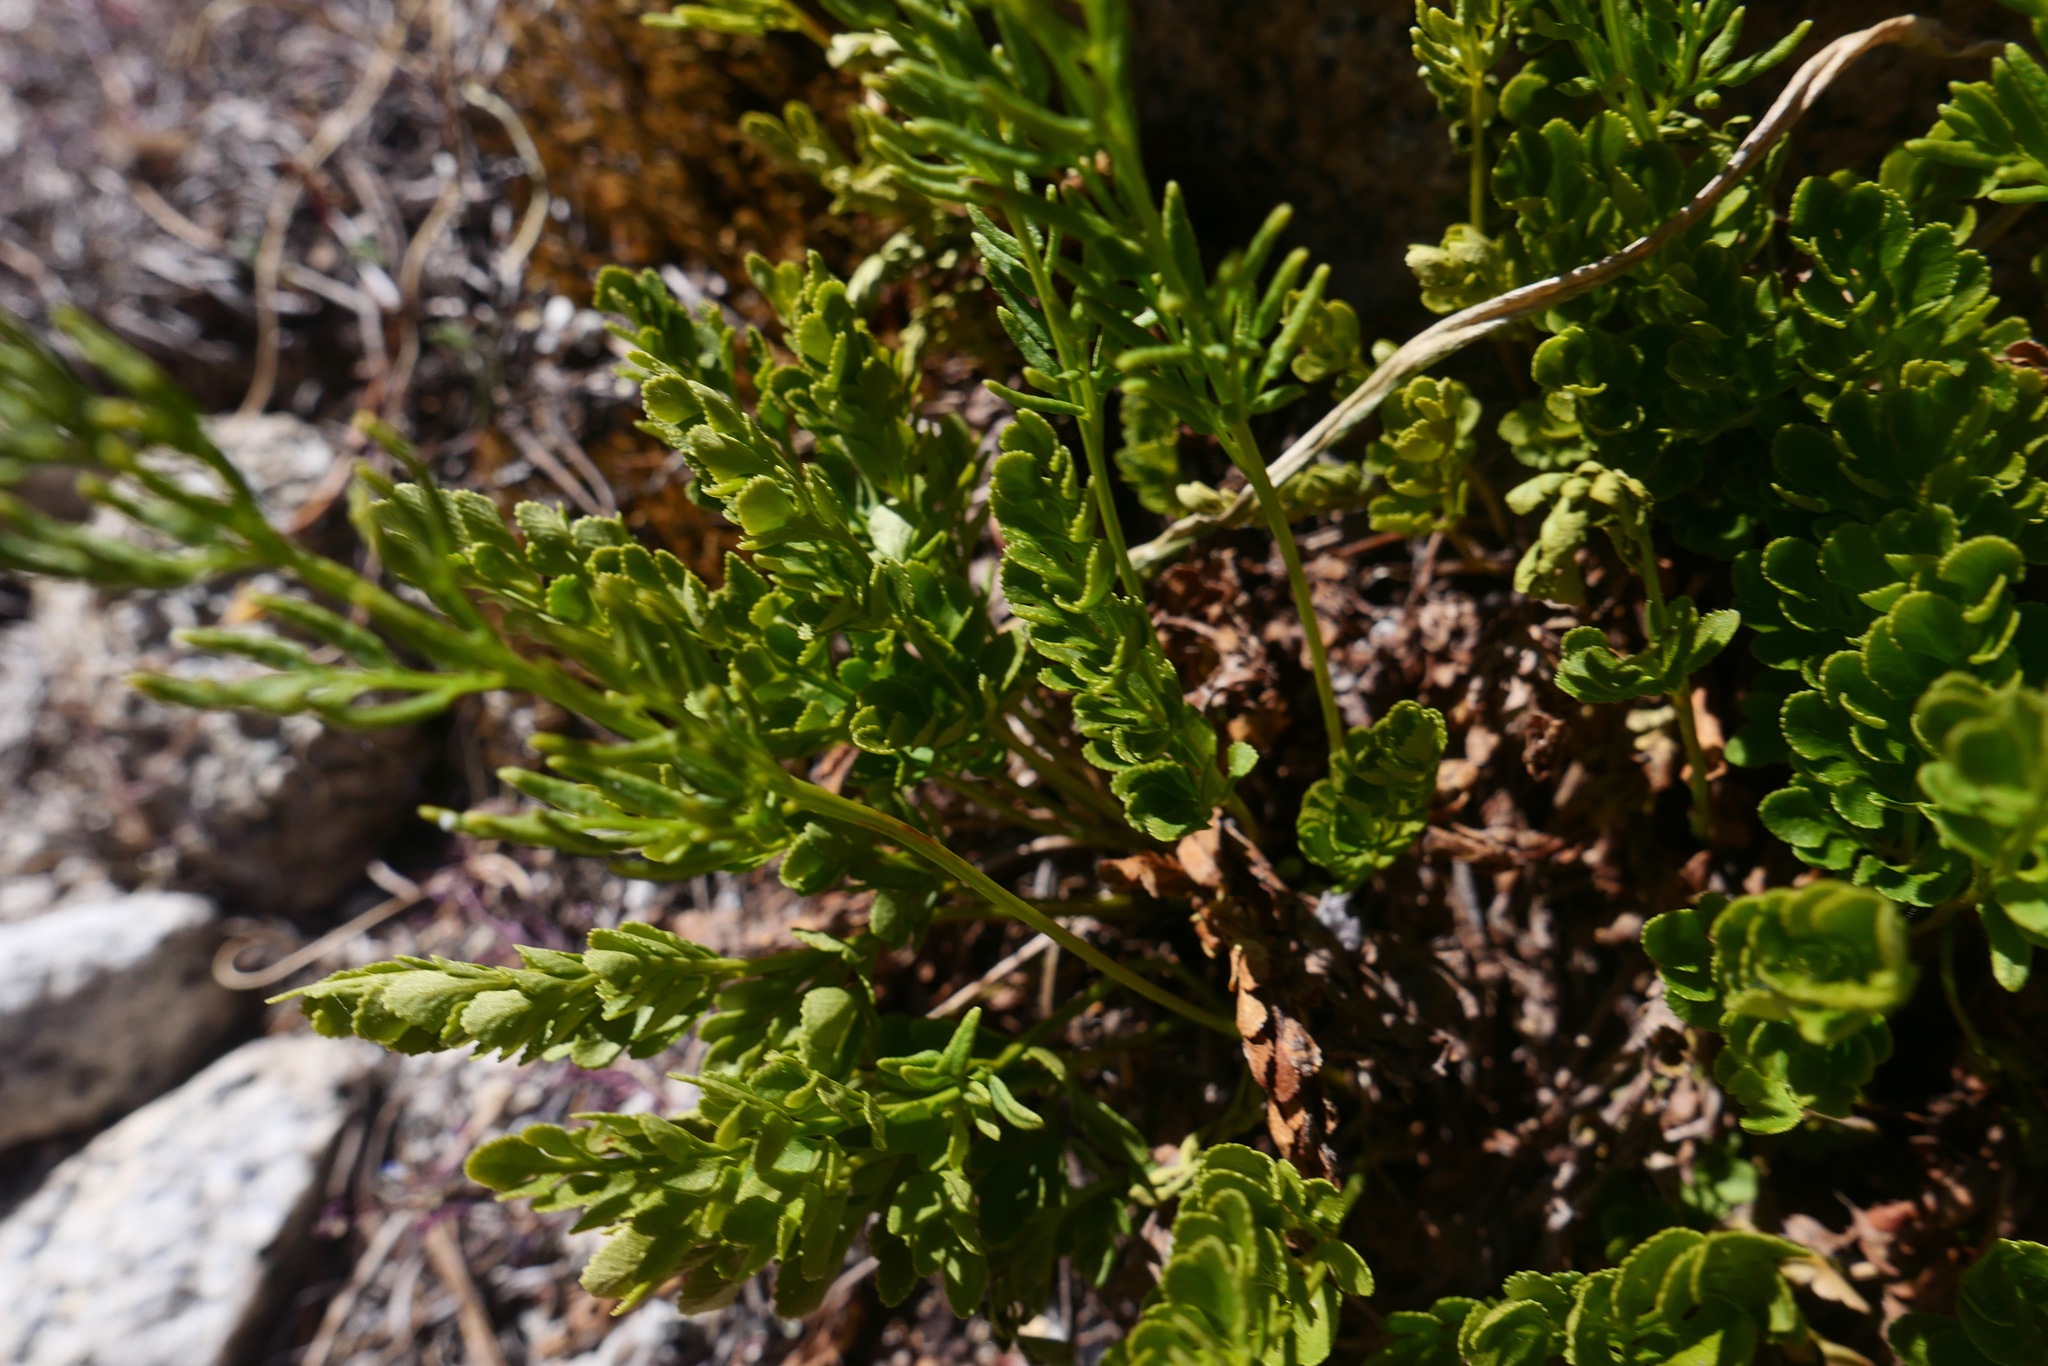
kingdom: Plantae
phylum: Tracheophyta
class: Polypodiopsida
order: Polypodiales
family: Pteridaceae
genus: Cryptogramma
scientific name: Cryptogramma acrostichoides
